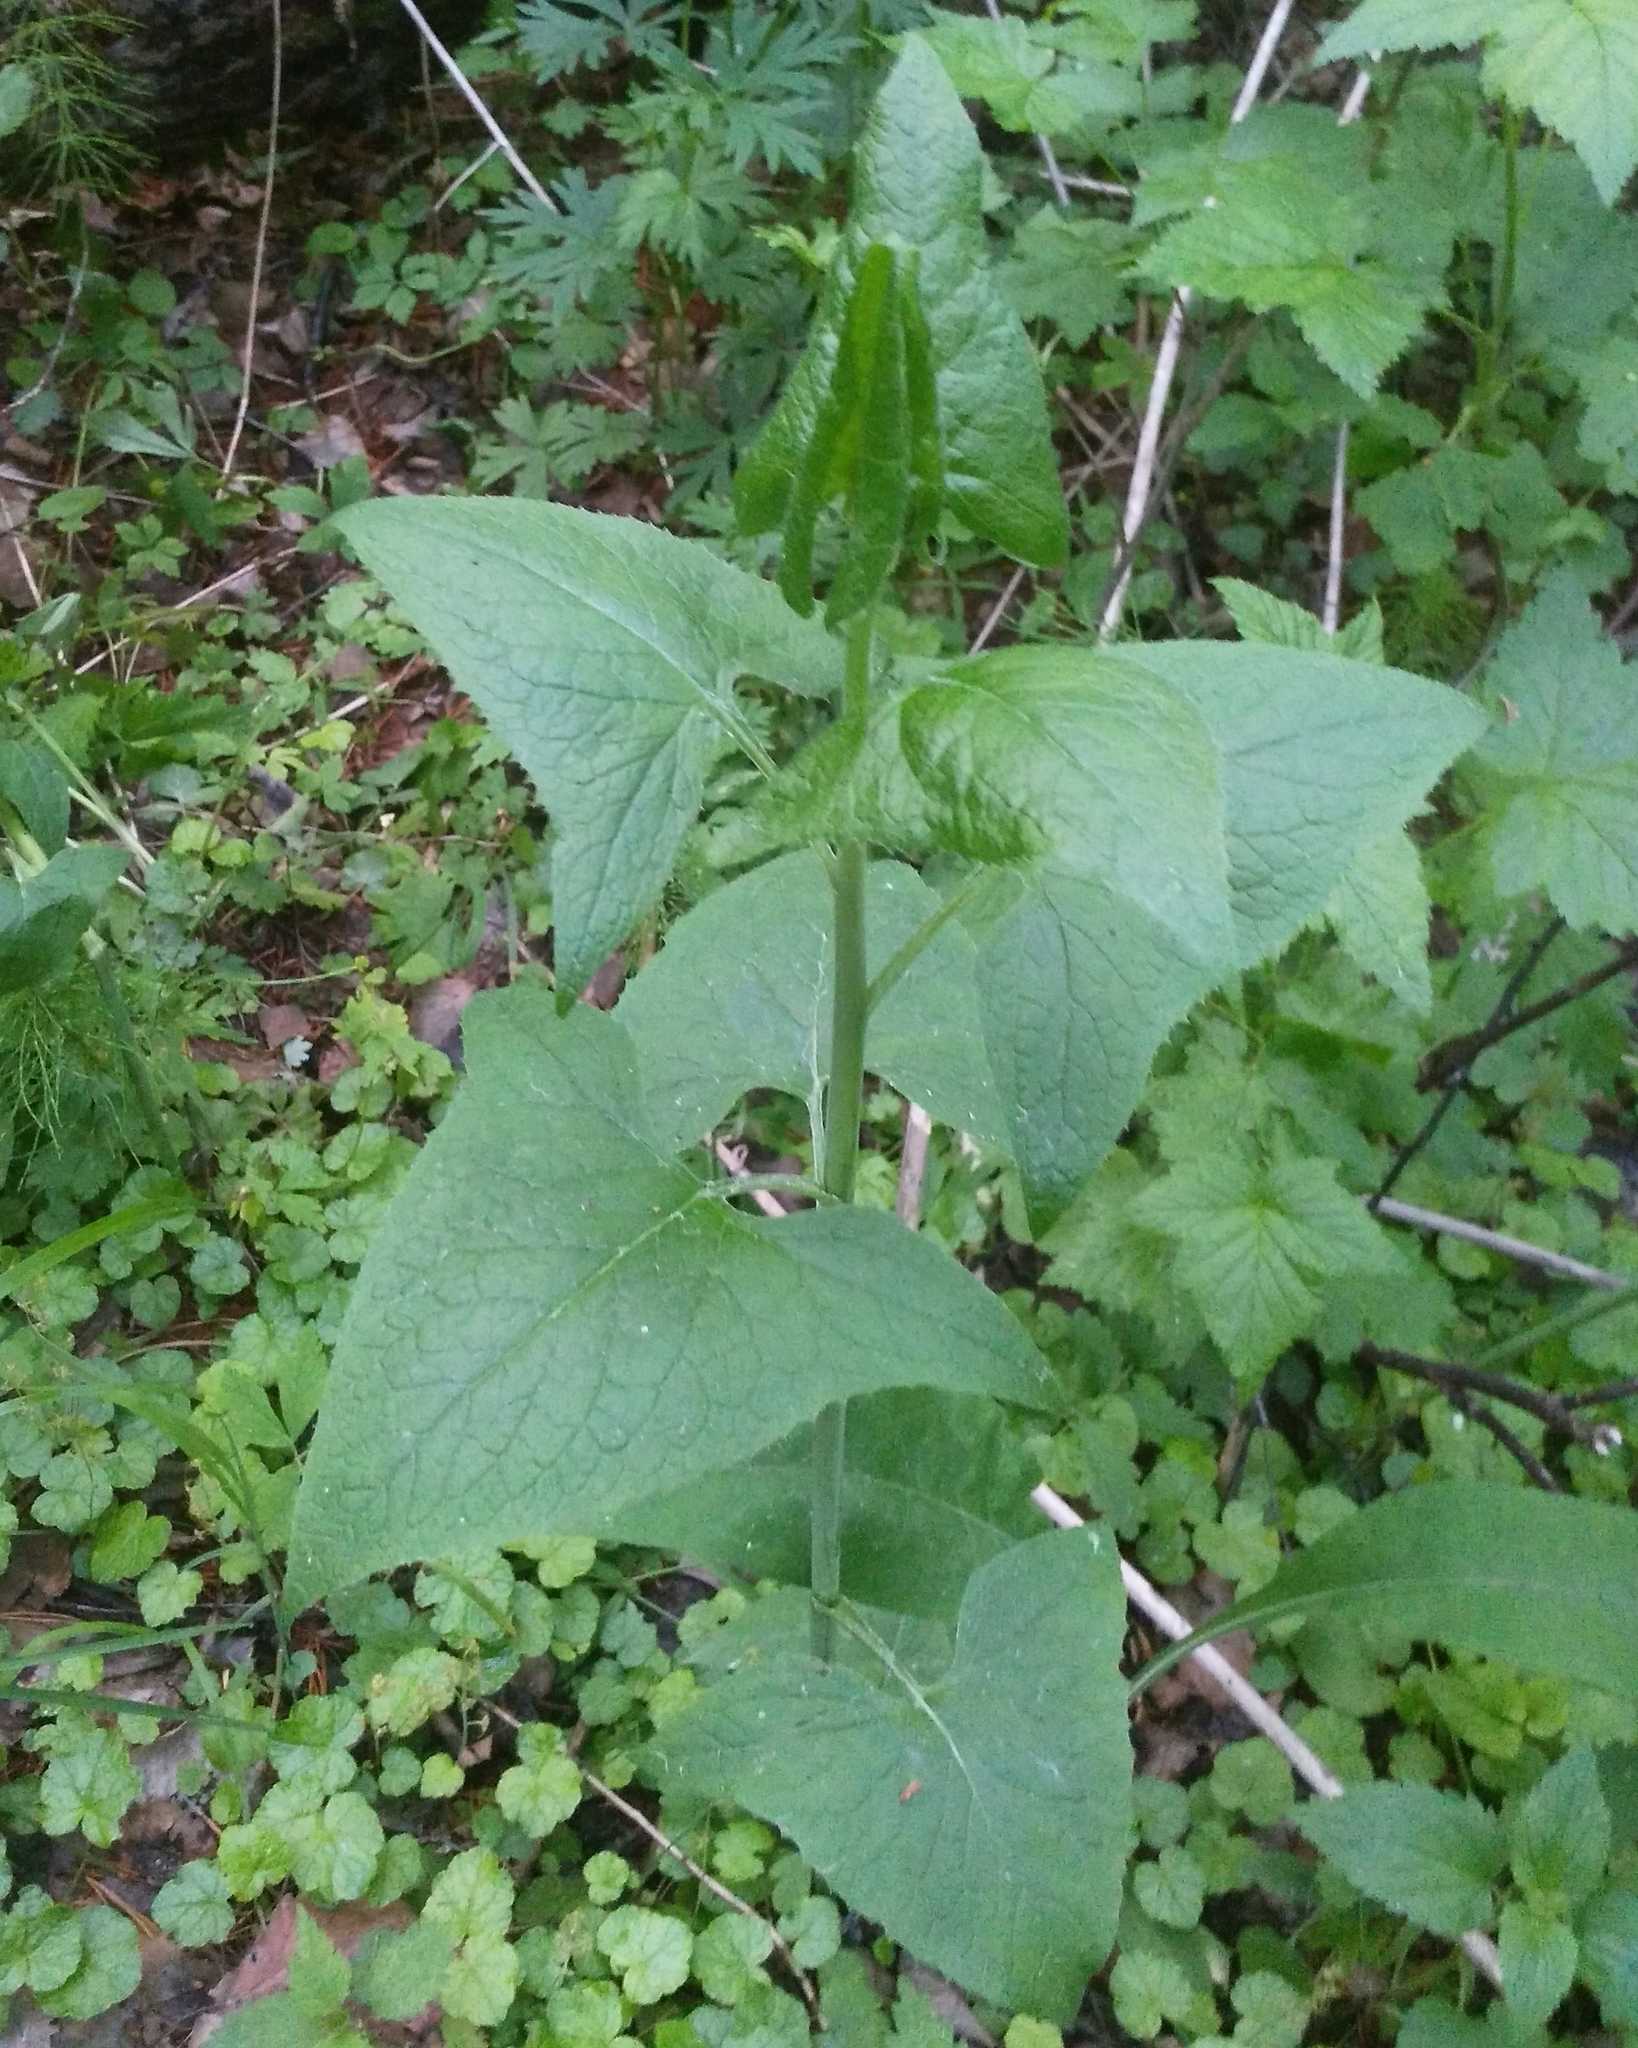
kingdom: Plantae
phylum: Tracheophyta
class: Magnoliopsida
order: Asterales
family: Asteraceae
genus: Parasenecio
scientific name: Parasenecio hastatus
